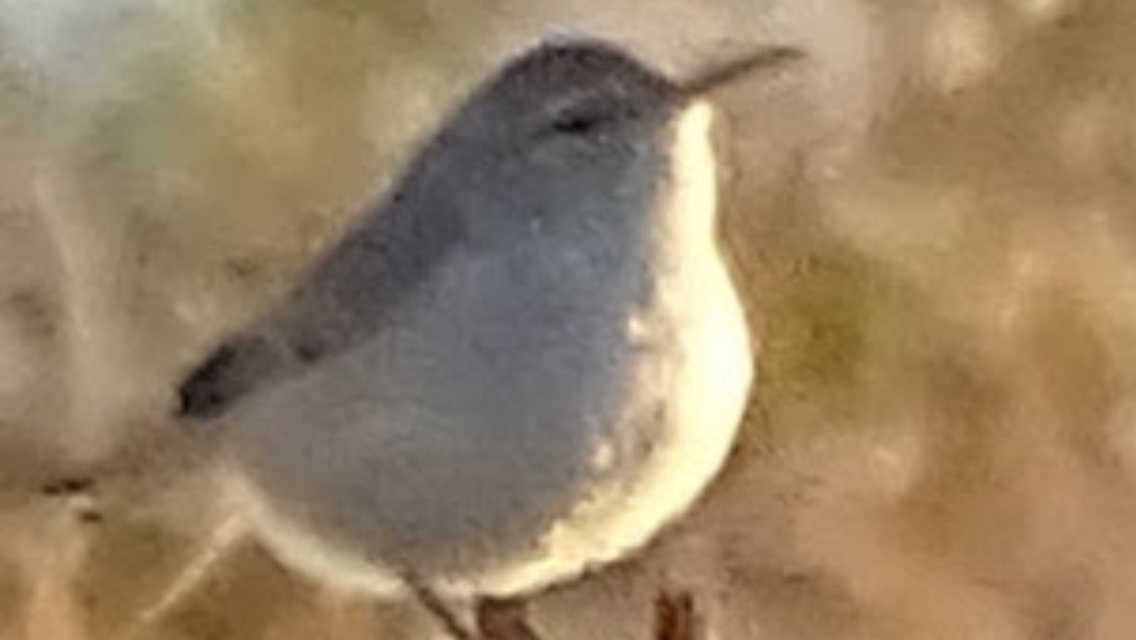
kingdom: Animalia
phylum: Chordata
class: Aves
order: Passeriformes
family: Troglodytidae
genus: Salpinctes
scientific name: Salpinctes obsoletus
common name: Rock wren
